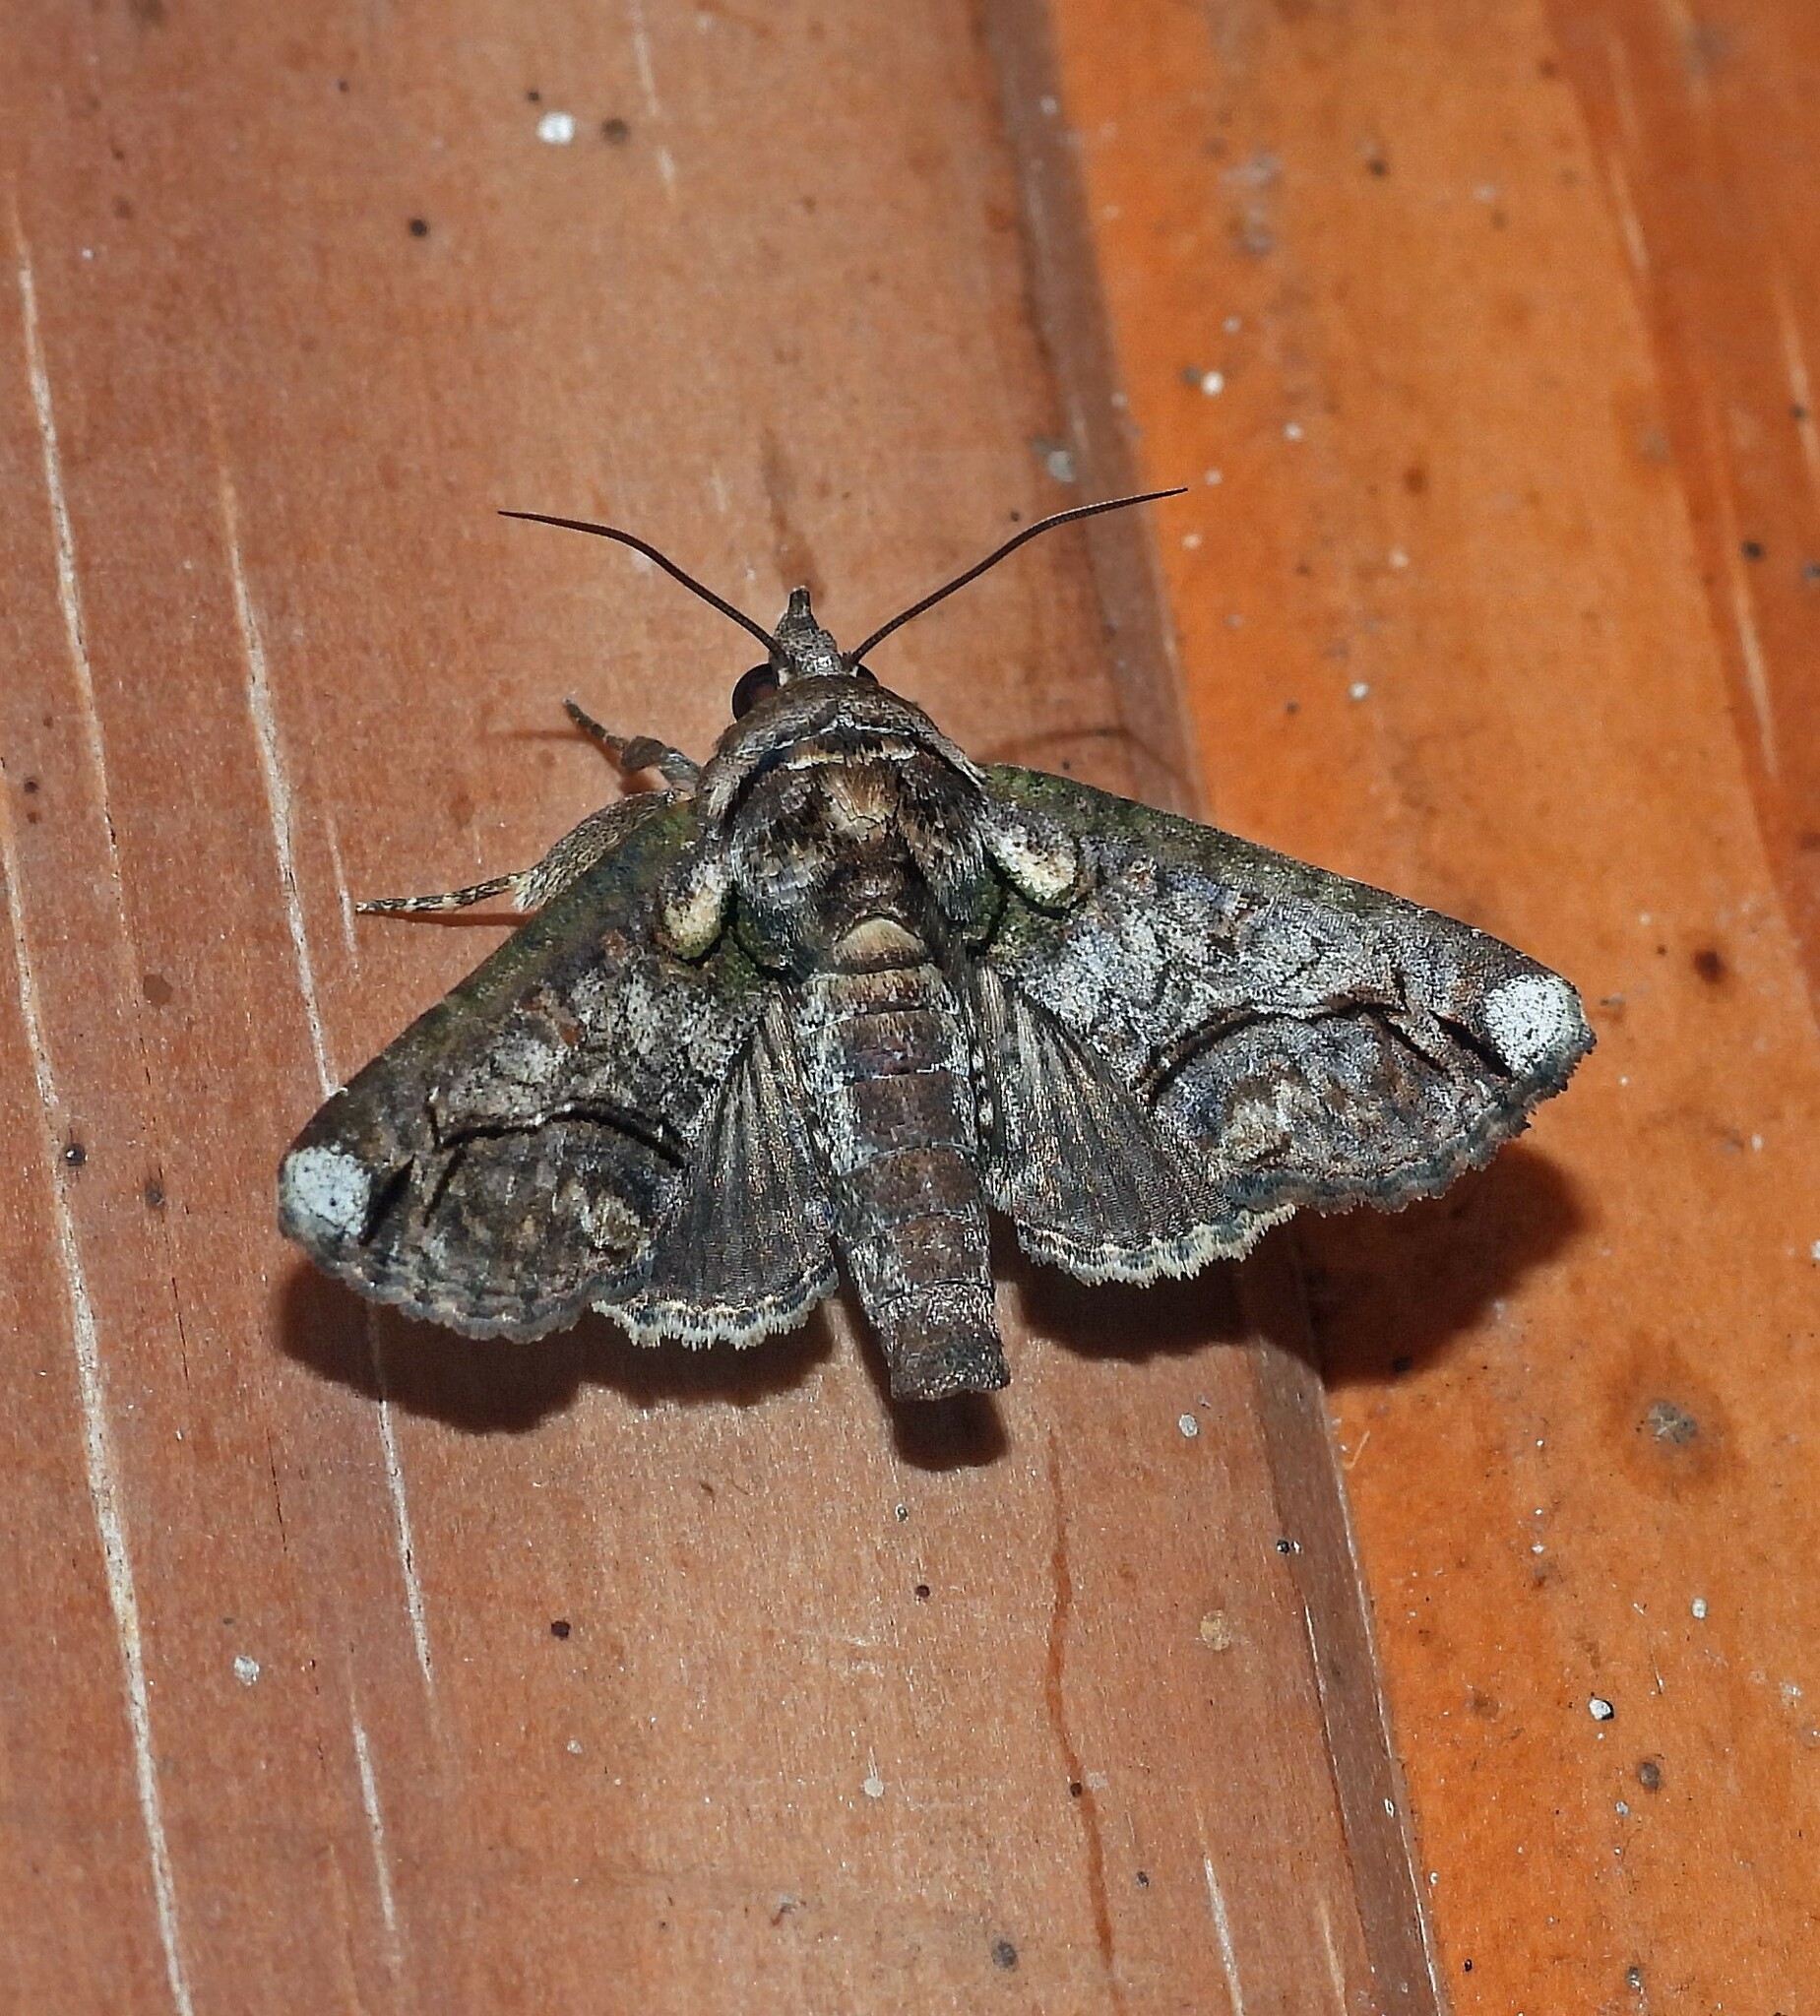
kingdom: Animalia
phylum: Arthropoda
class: Insecta
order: Lepidoptera
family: Euteliidae
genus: Paectes
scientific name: Paectes lunodes
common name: Cutworm moth
